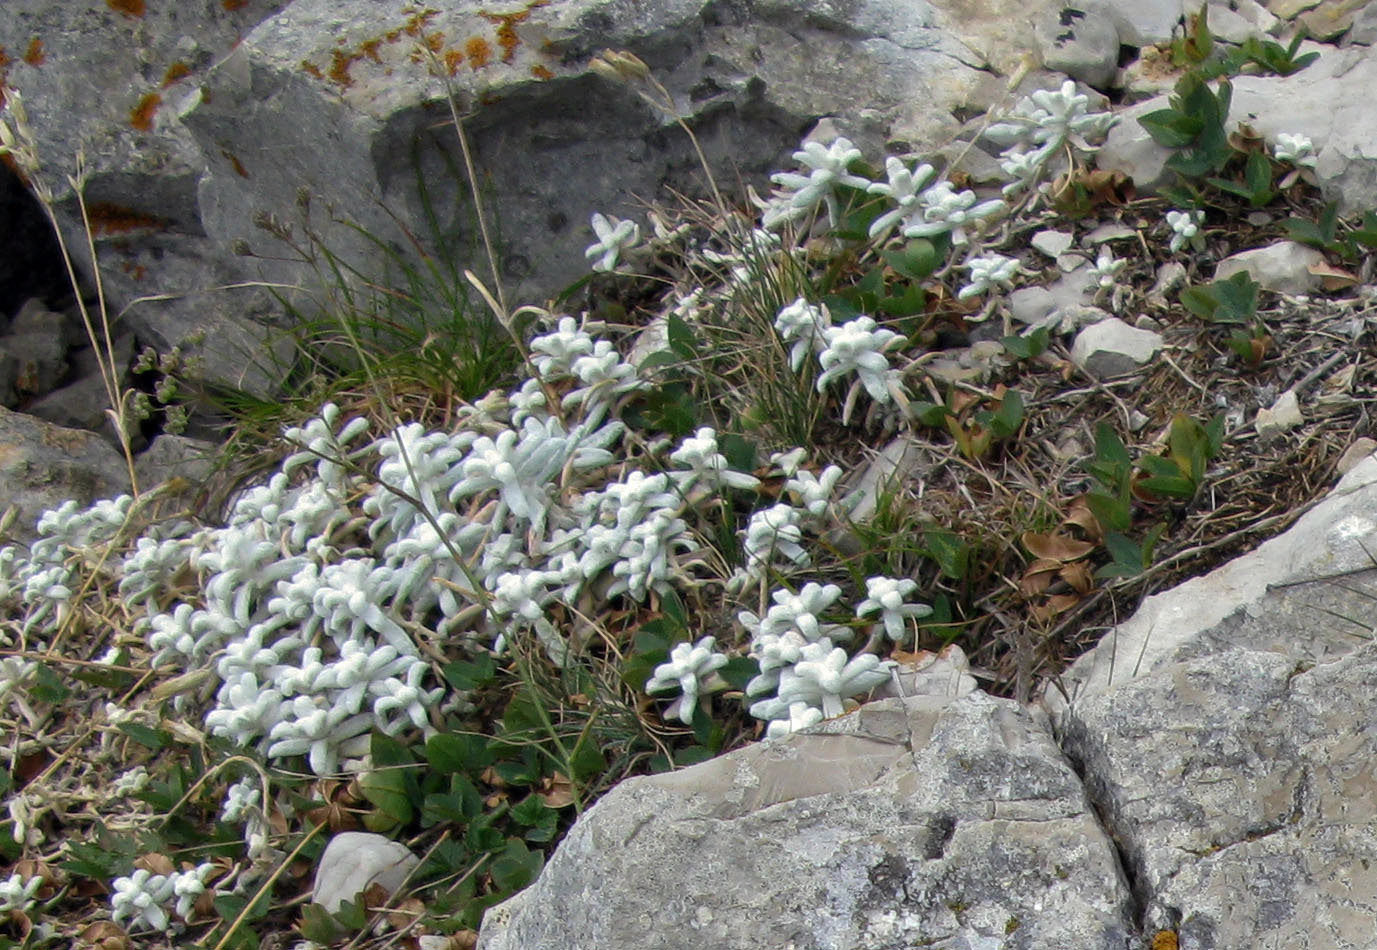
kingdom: Plantae
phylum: Tracheophyta
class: Magnoliopsida
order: Caryophyllales
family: Caryophyllaceae
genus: Cerastium
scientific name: Cerastium biebersteinii
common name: Snow-in-summer
